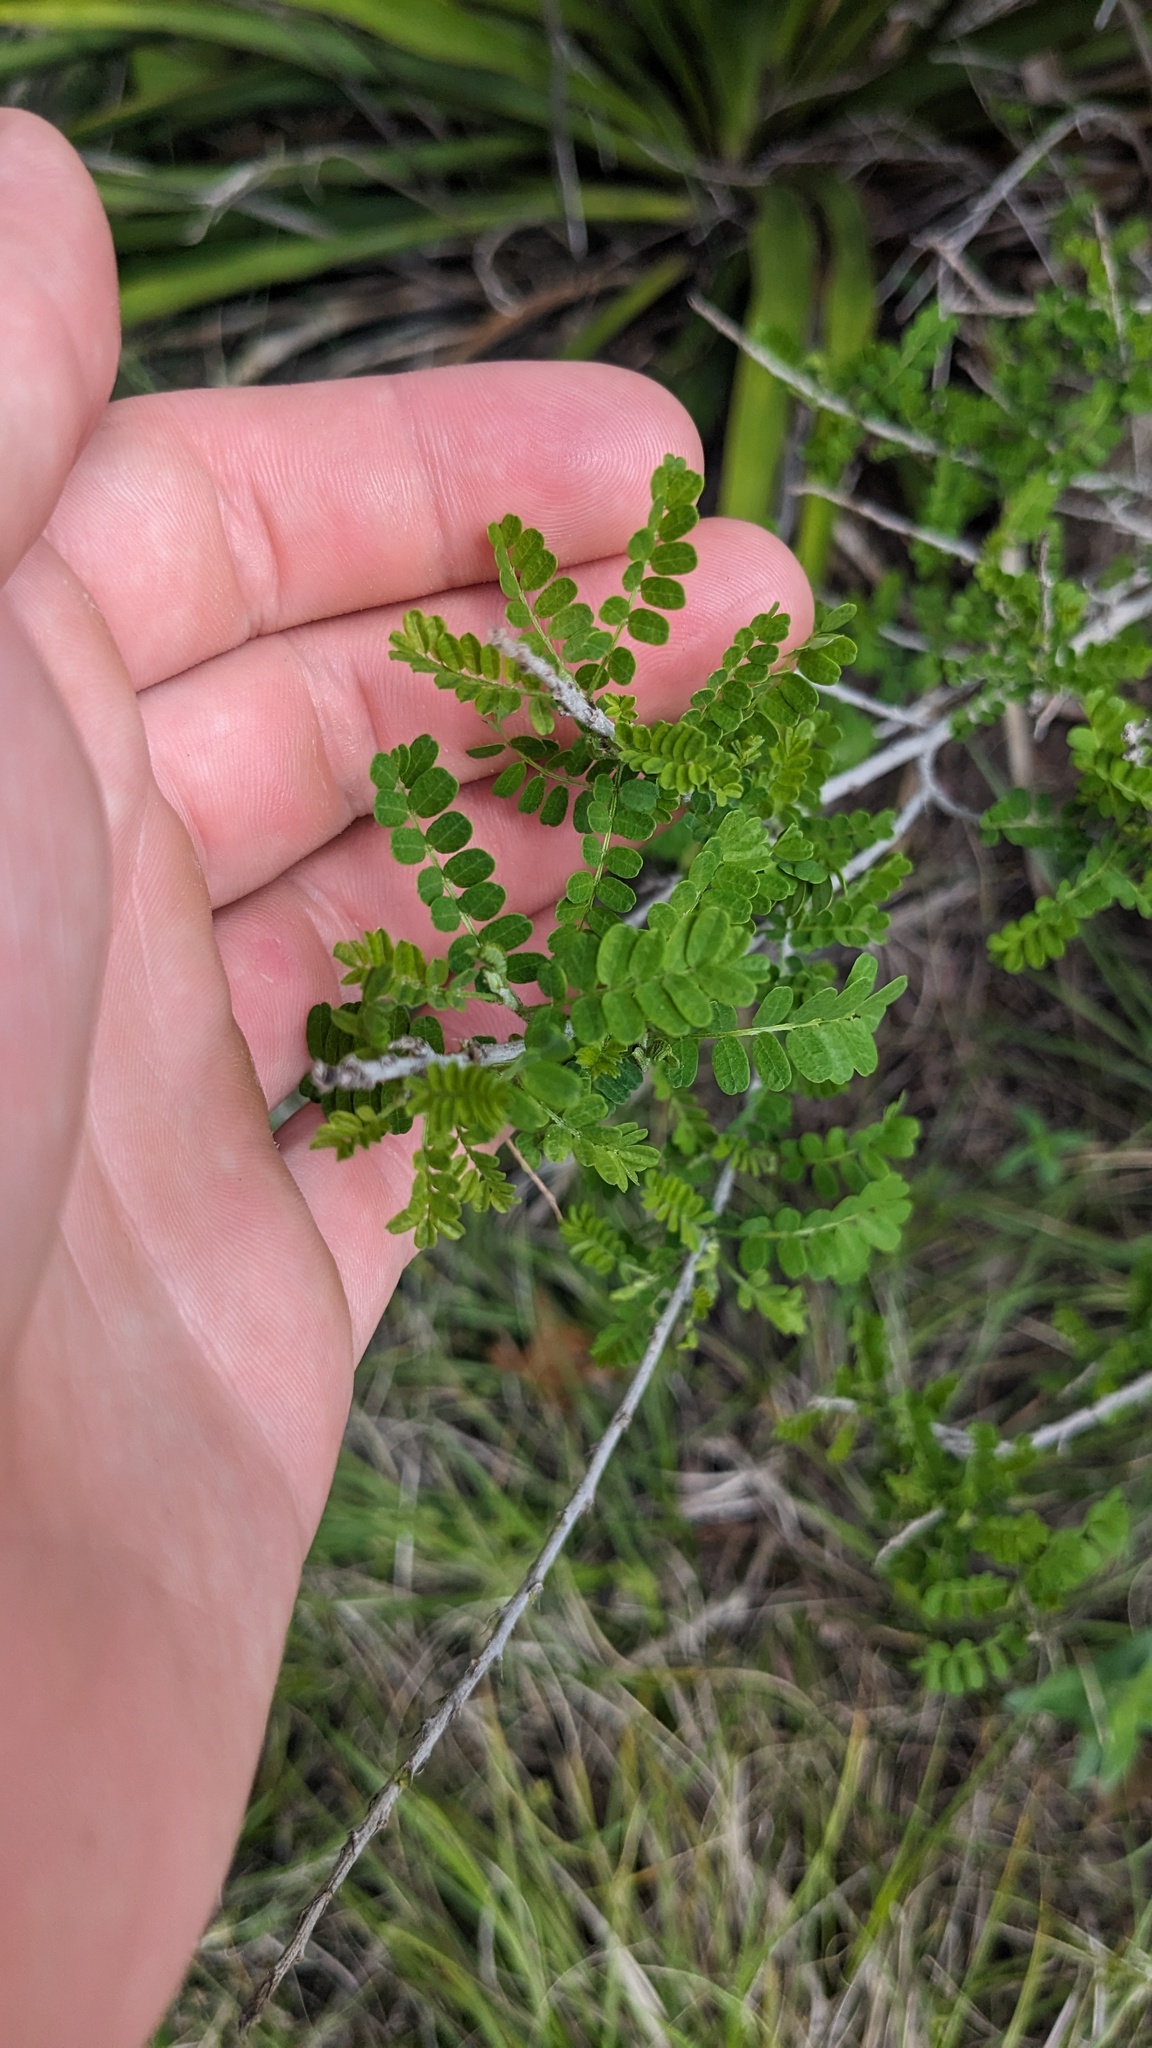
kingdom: Plantae
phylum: Tracheophyta
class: Magnoliopsida
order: Fabales
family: Fabaceae
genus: Eysenhardtia
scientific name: Eysenhardtia texana
